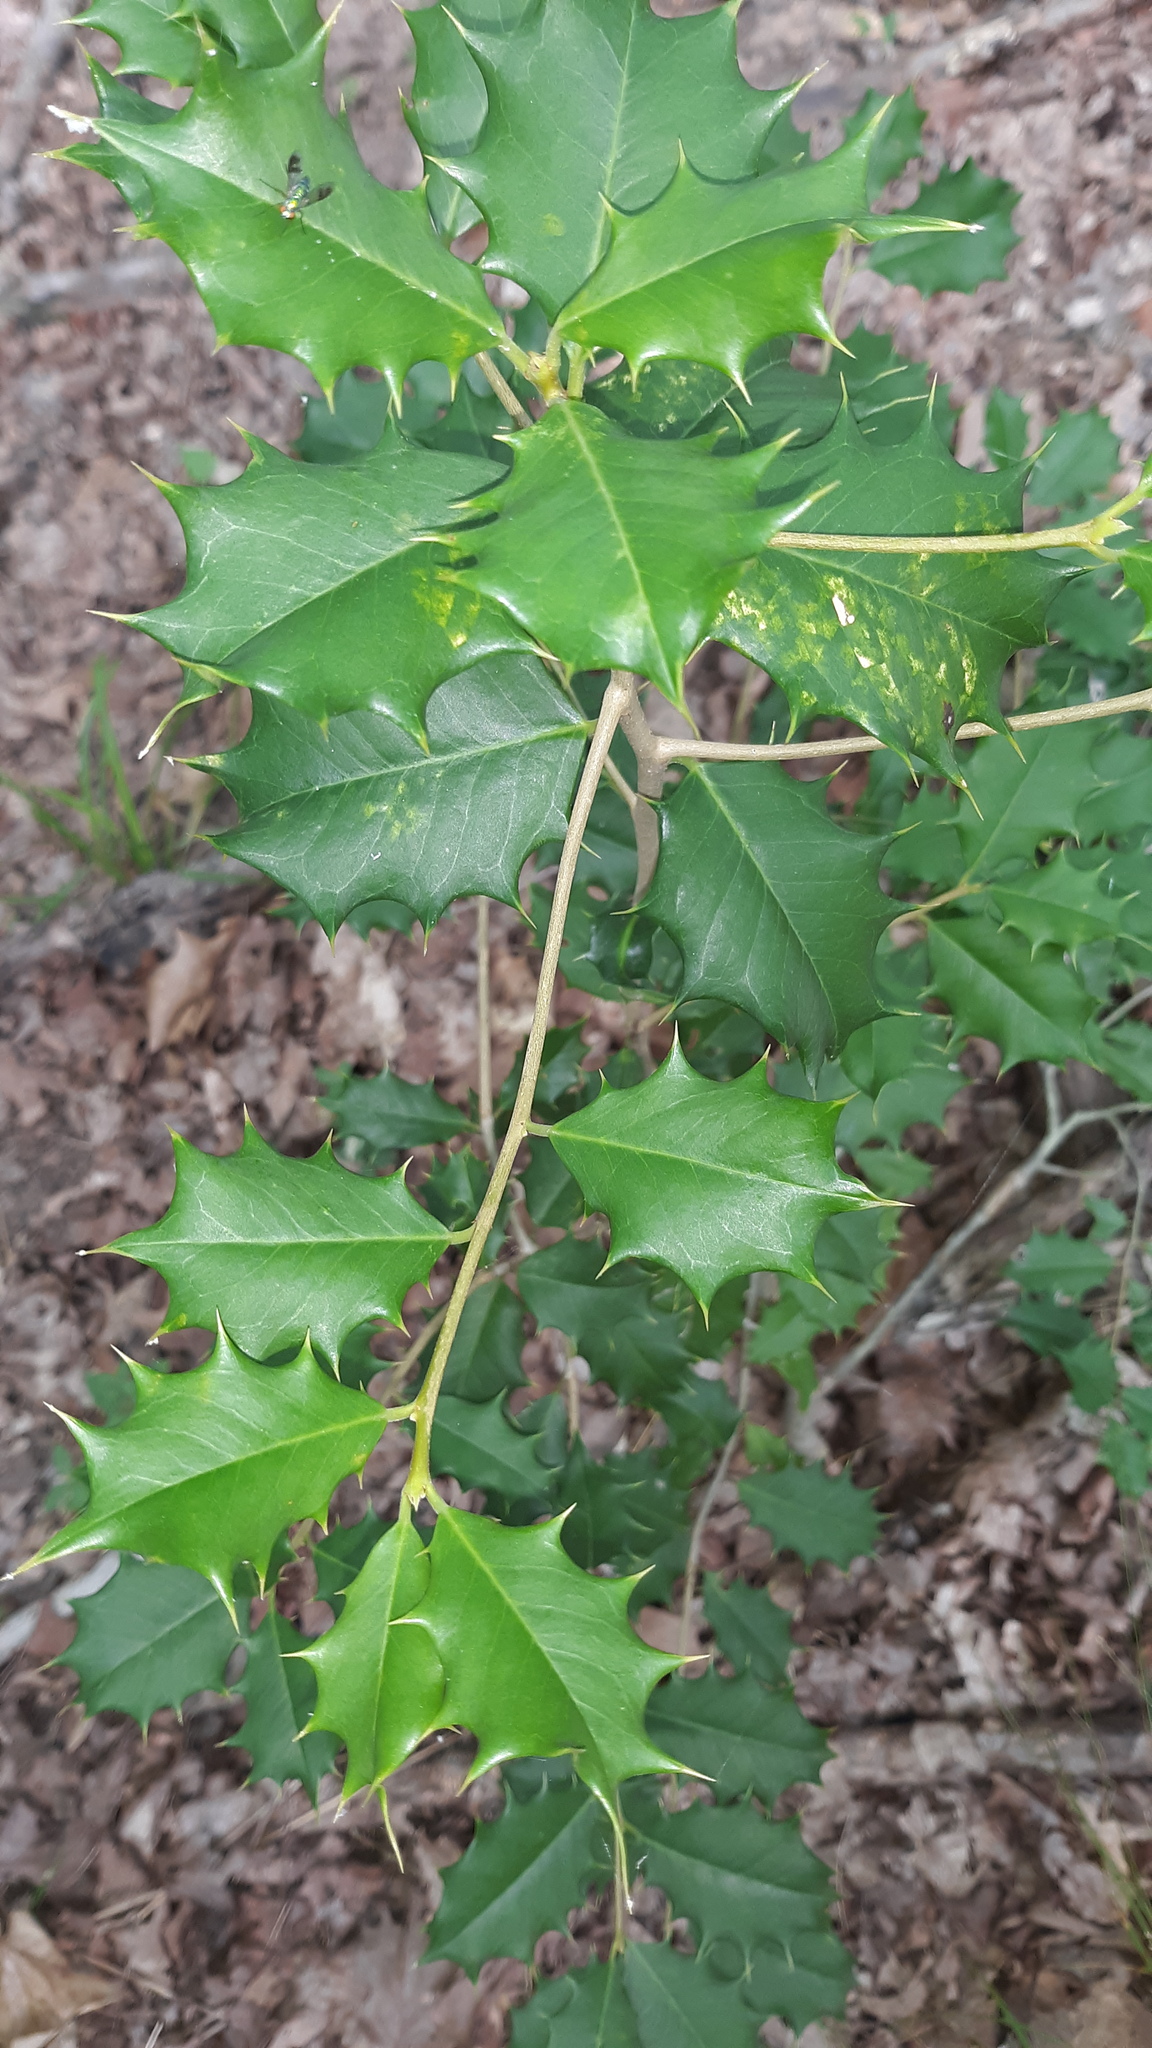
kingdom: Plantae
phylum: Tracheophyta
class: Magnoliopsida
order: Aquifoliales
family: Aquifoliaceae
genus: Ilex
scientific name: Ilex opaca
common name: American holly
